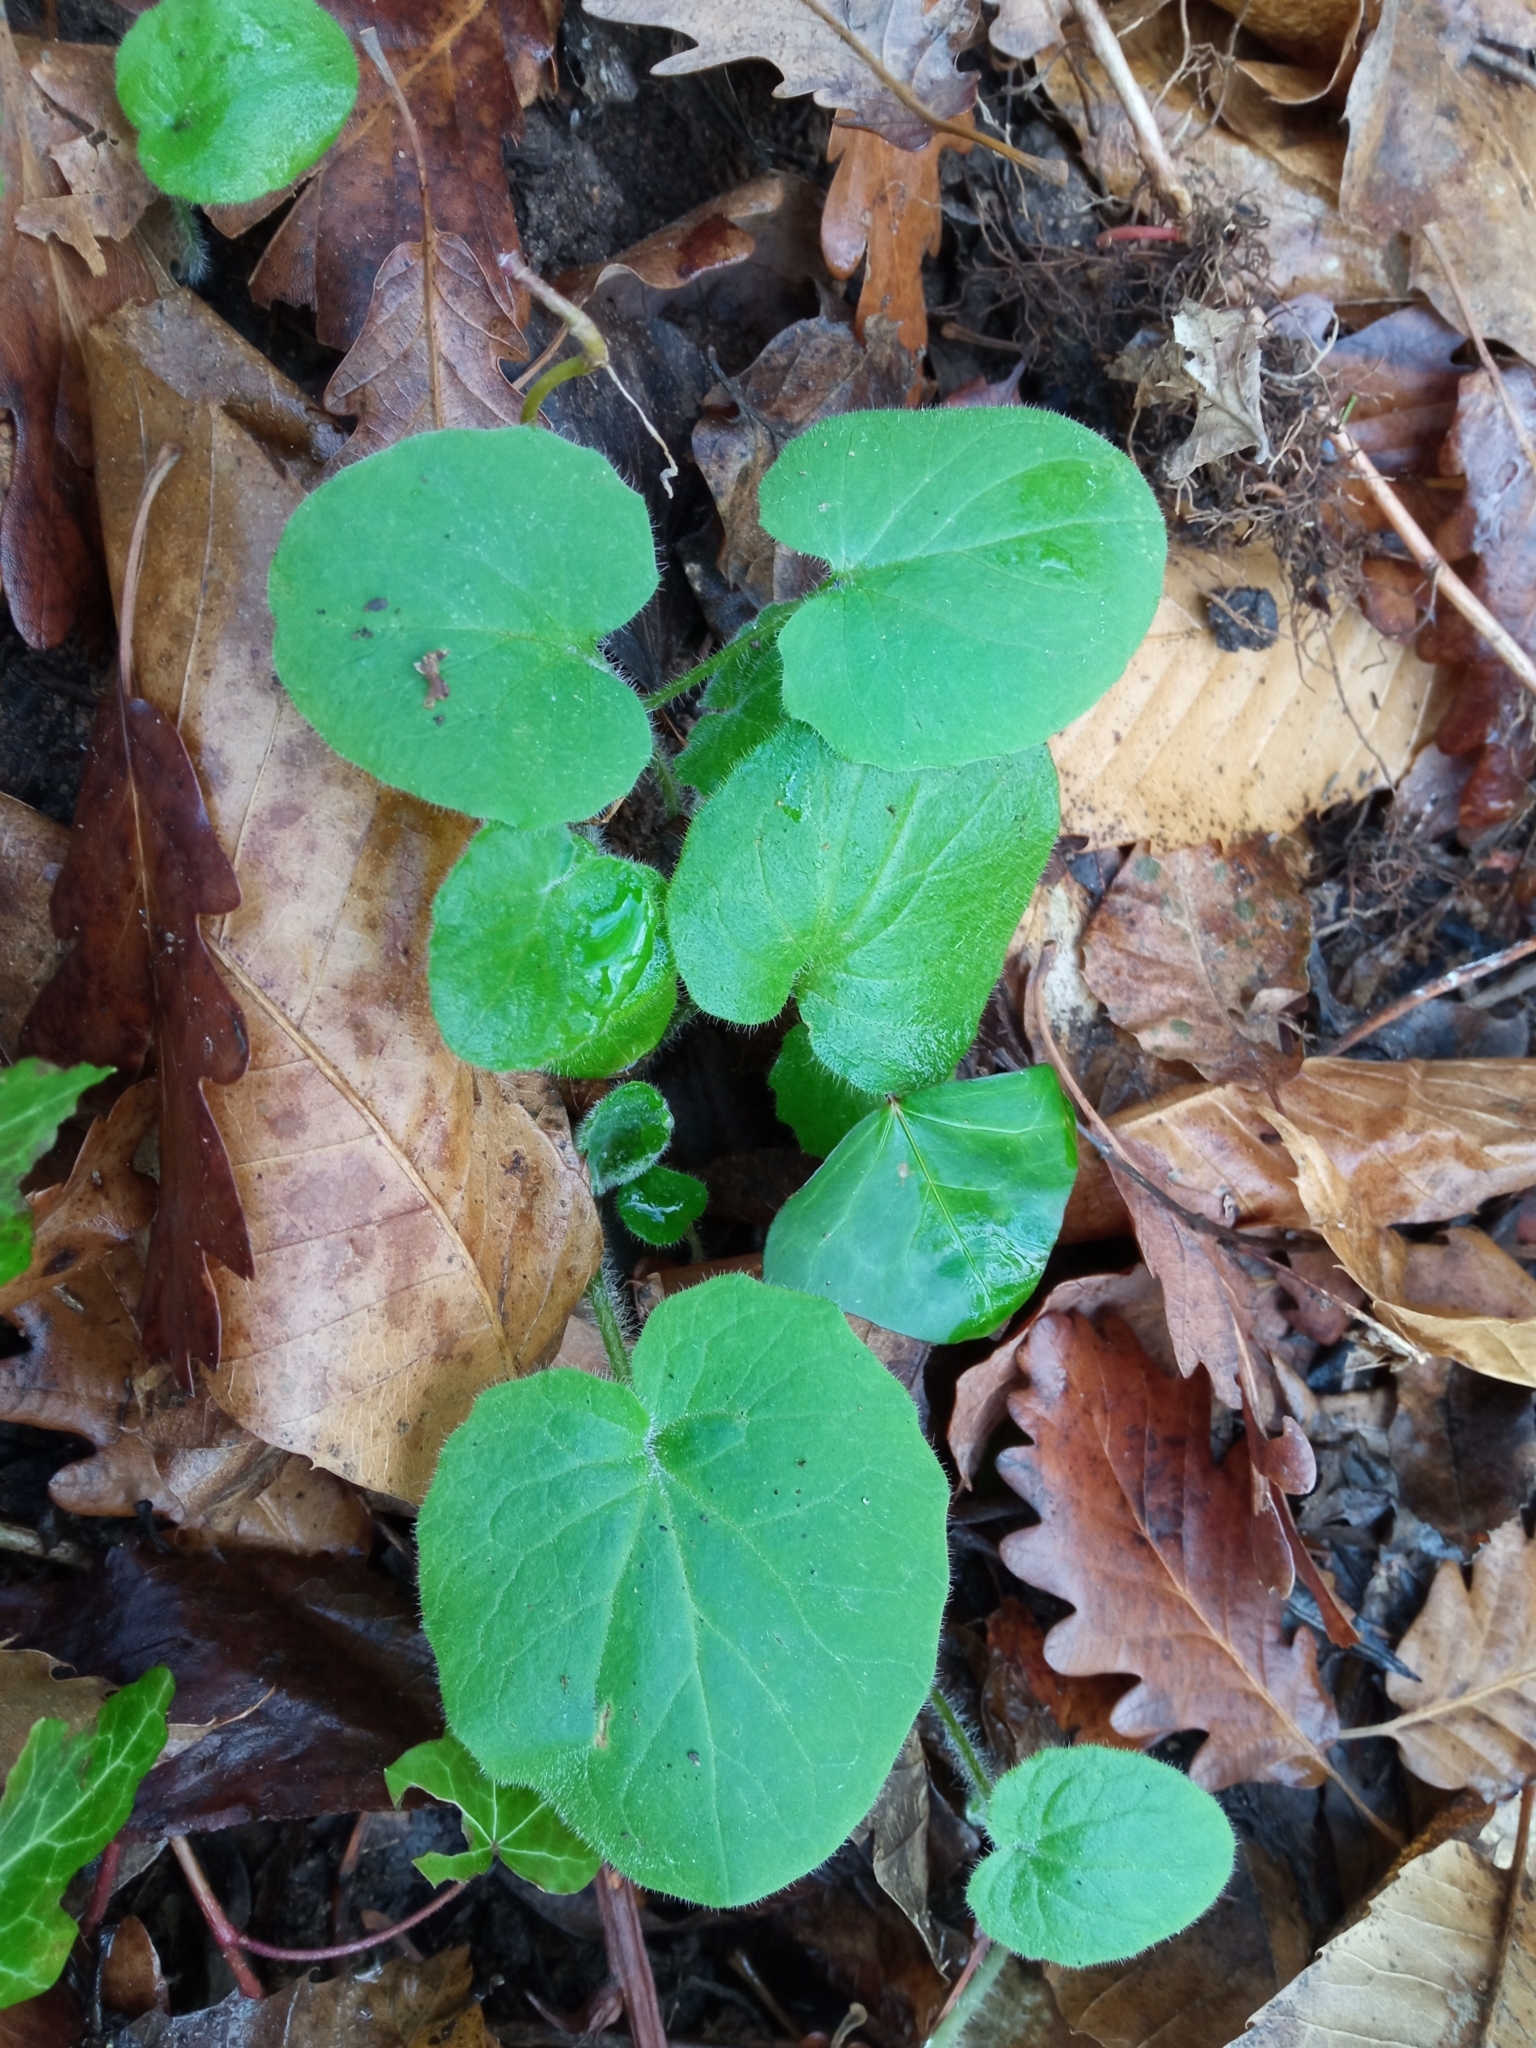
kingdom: Plantae
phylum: Tracheophyta
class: Magnoliopsida
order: Asterales
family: Asteraceae
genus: Doronicum
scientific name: Doronicum pardalianches
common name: Leopard's-bane
